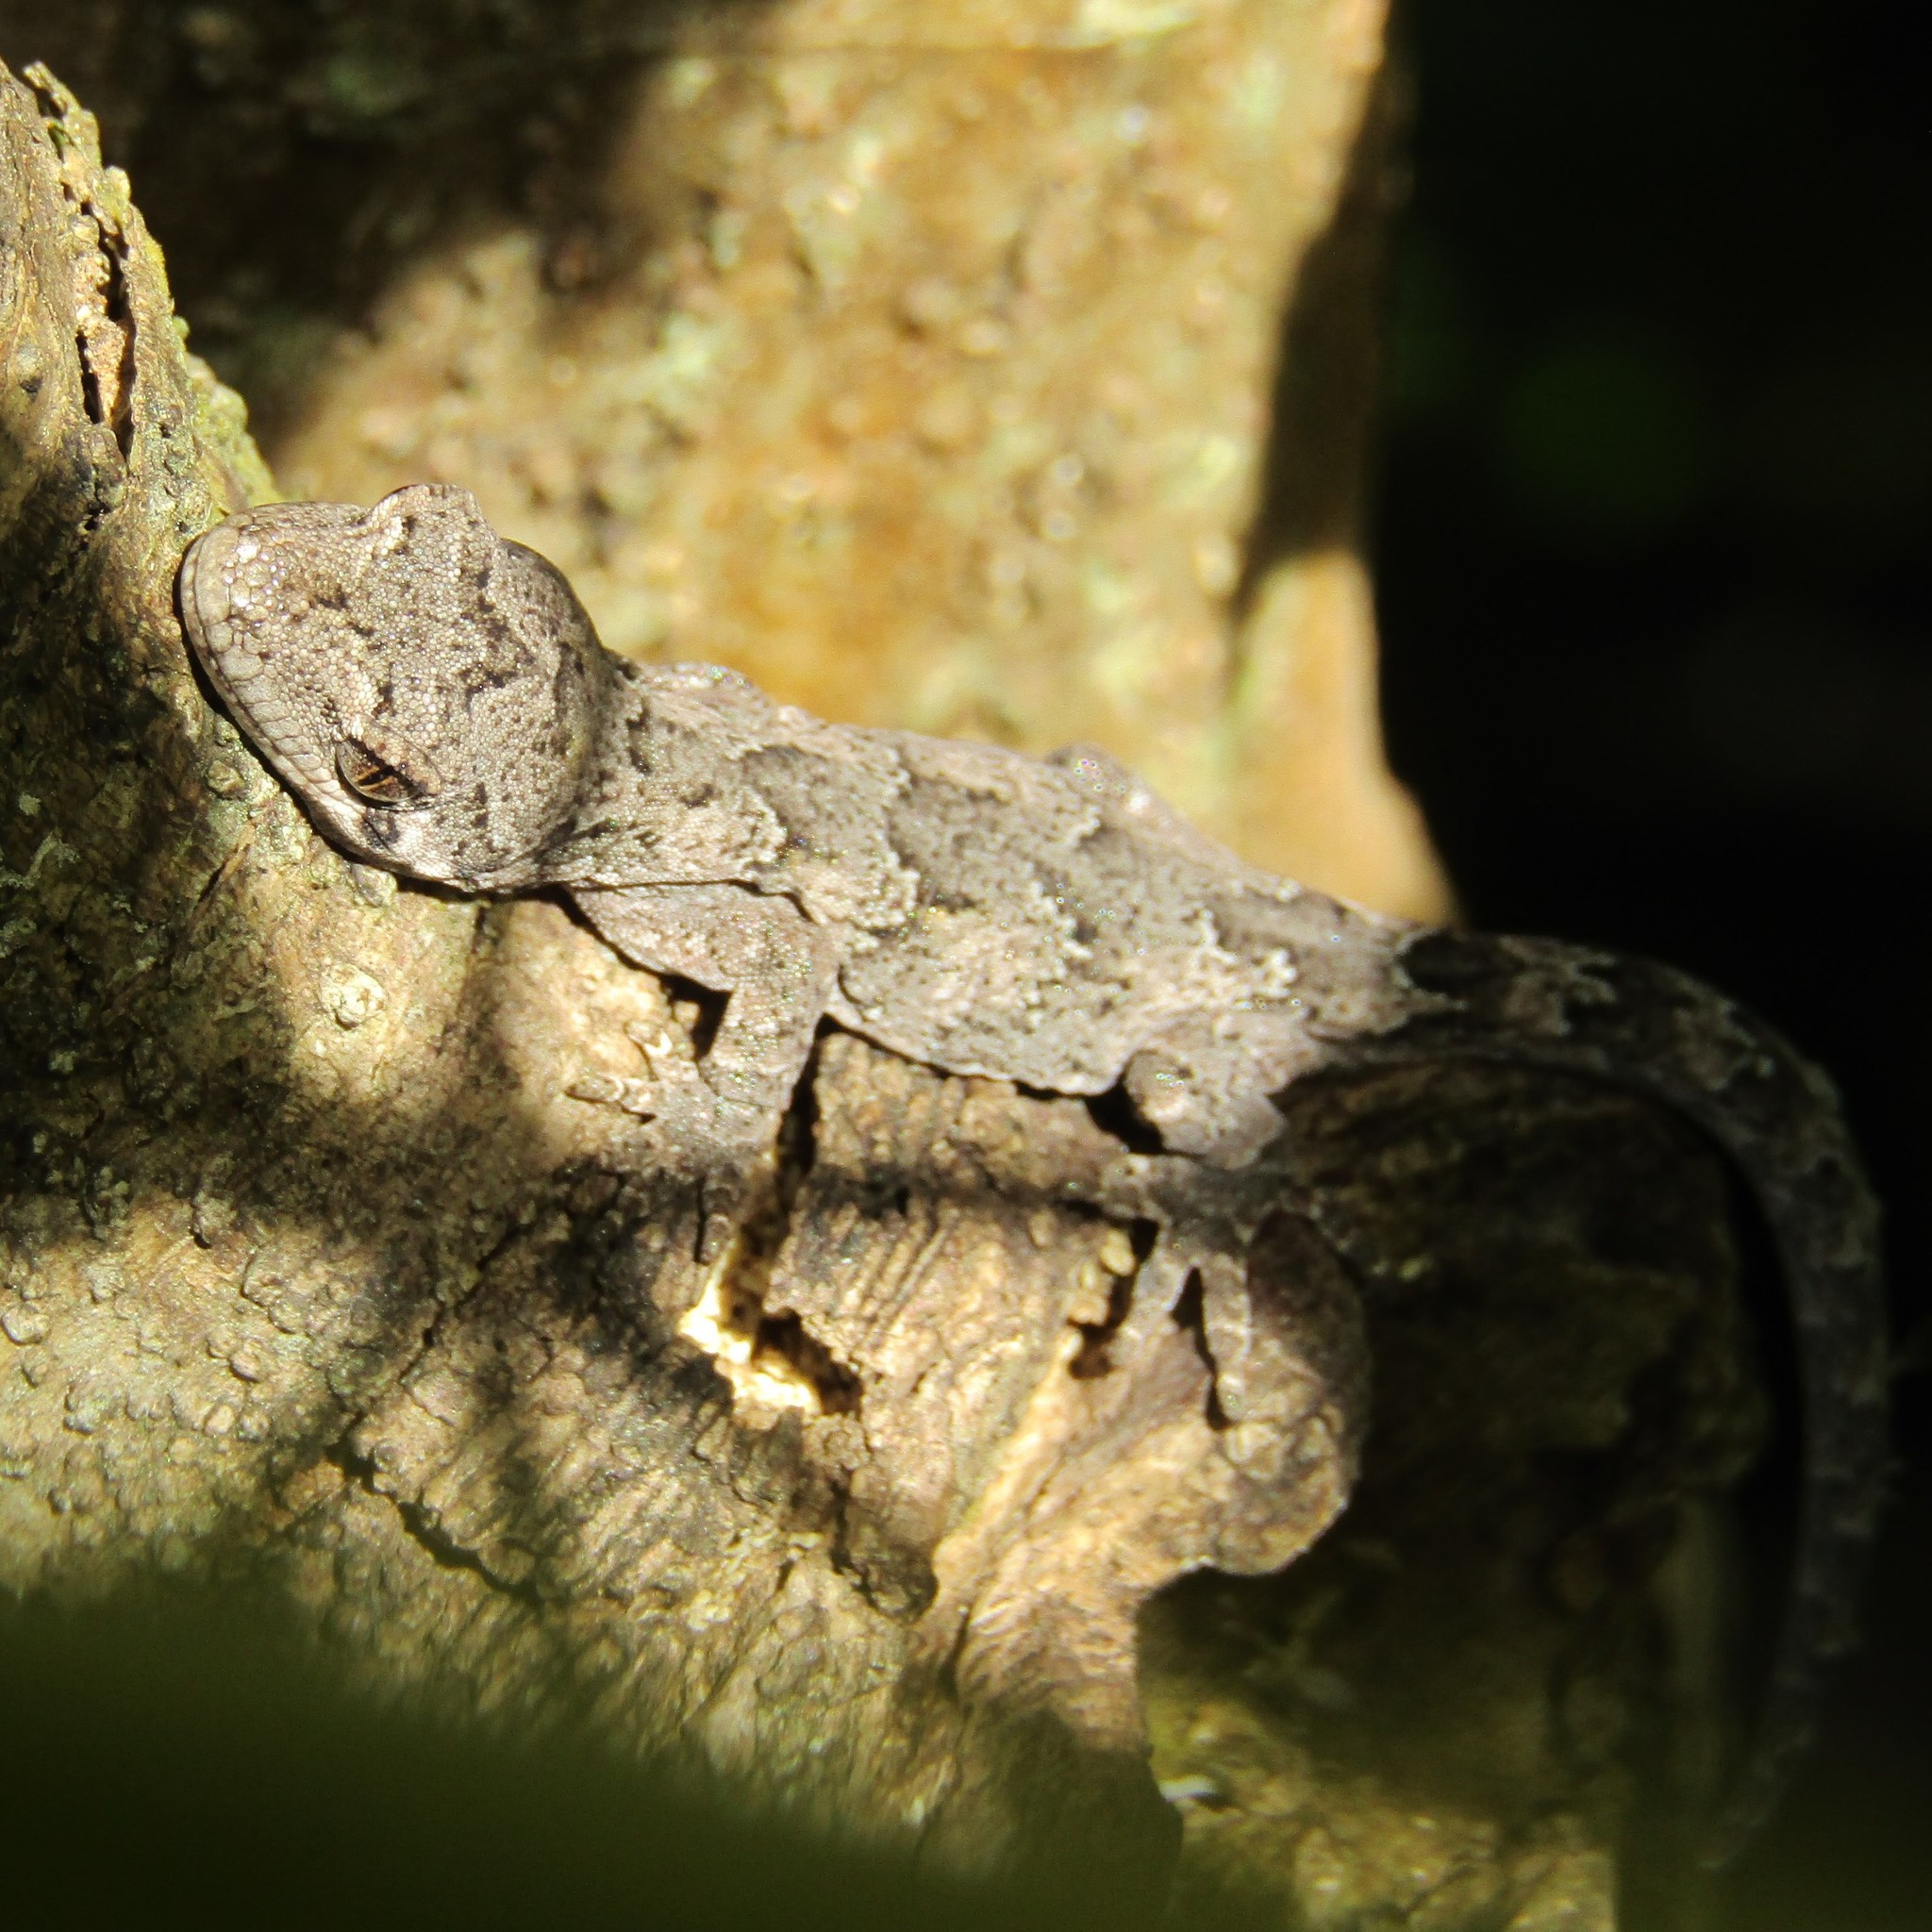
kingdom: Animalia
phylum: Chordata
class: Squamata
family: Diplodactylidae
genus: Mokopirirakau
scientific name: Mokopirirakau
